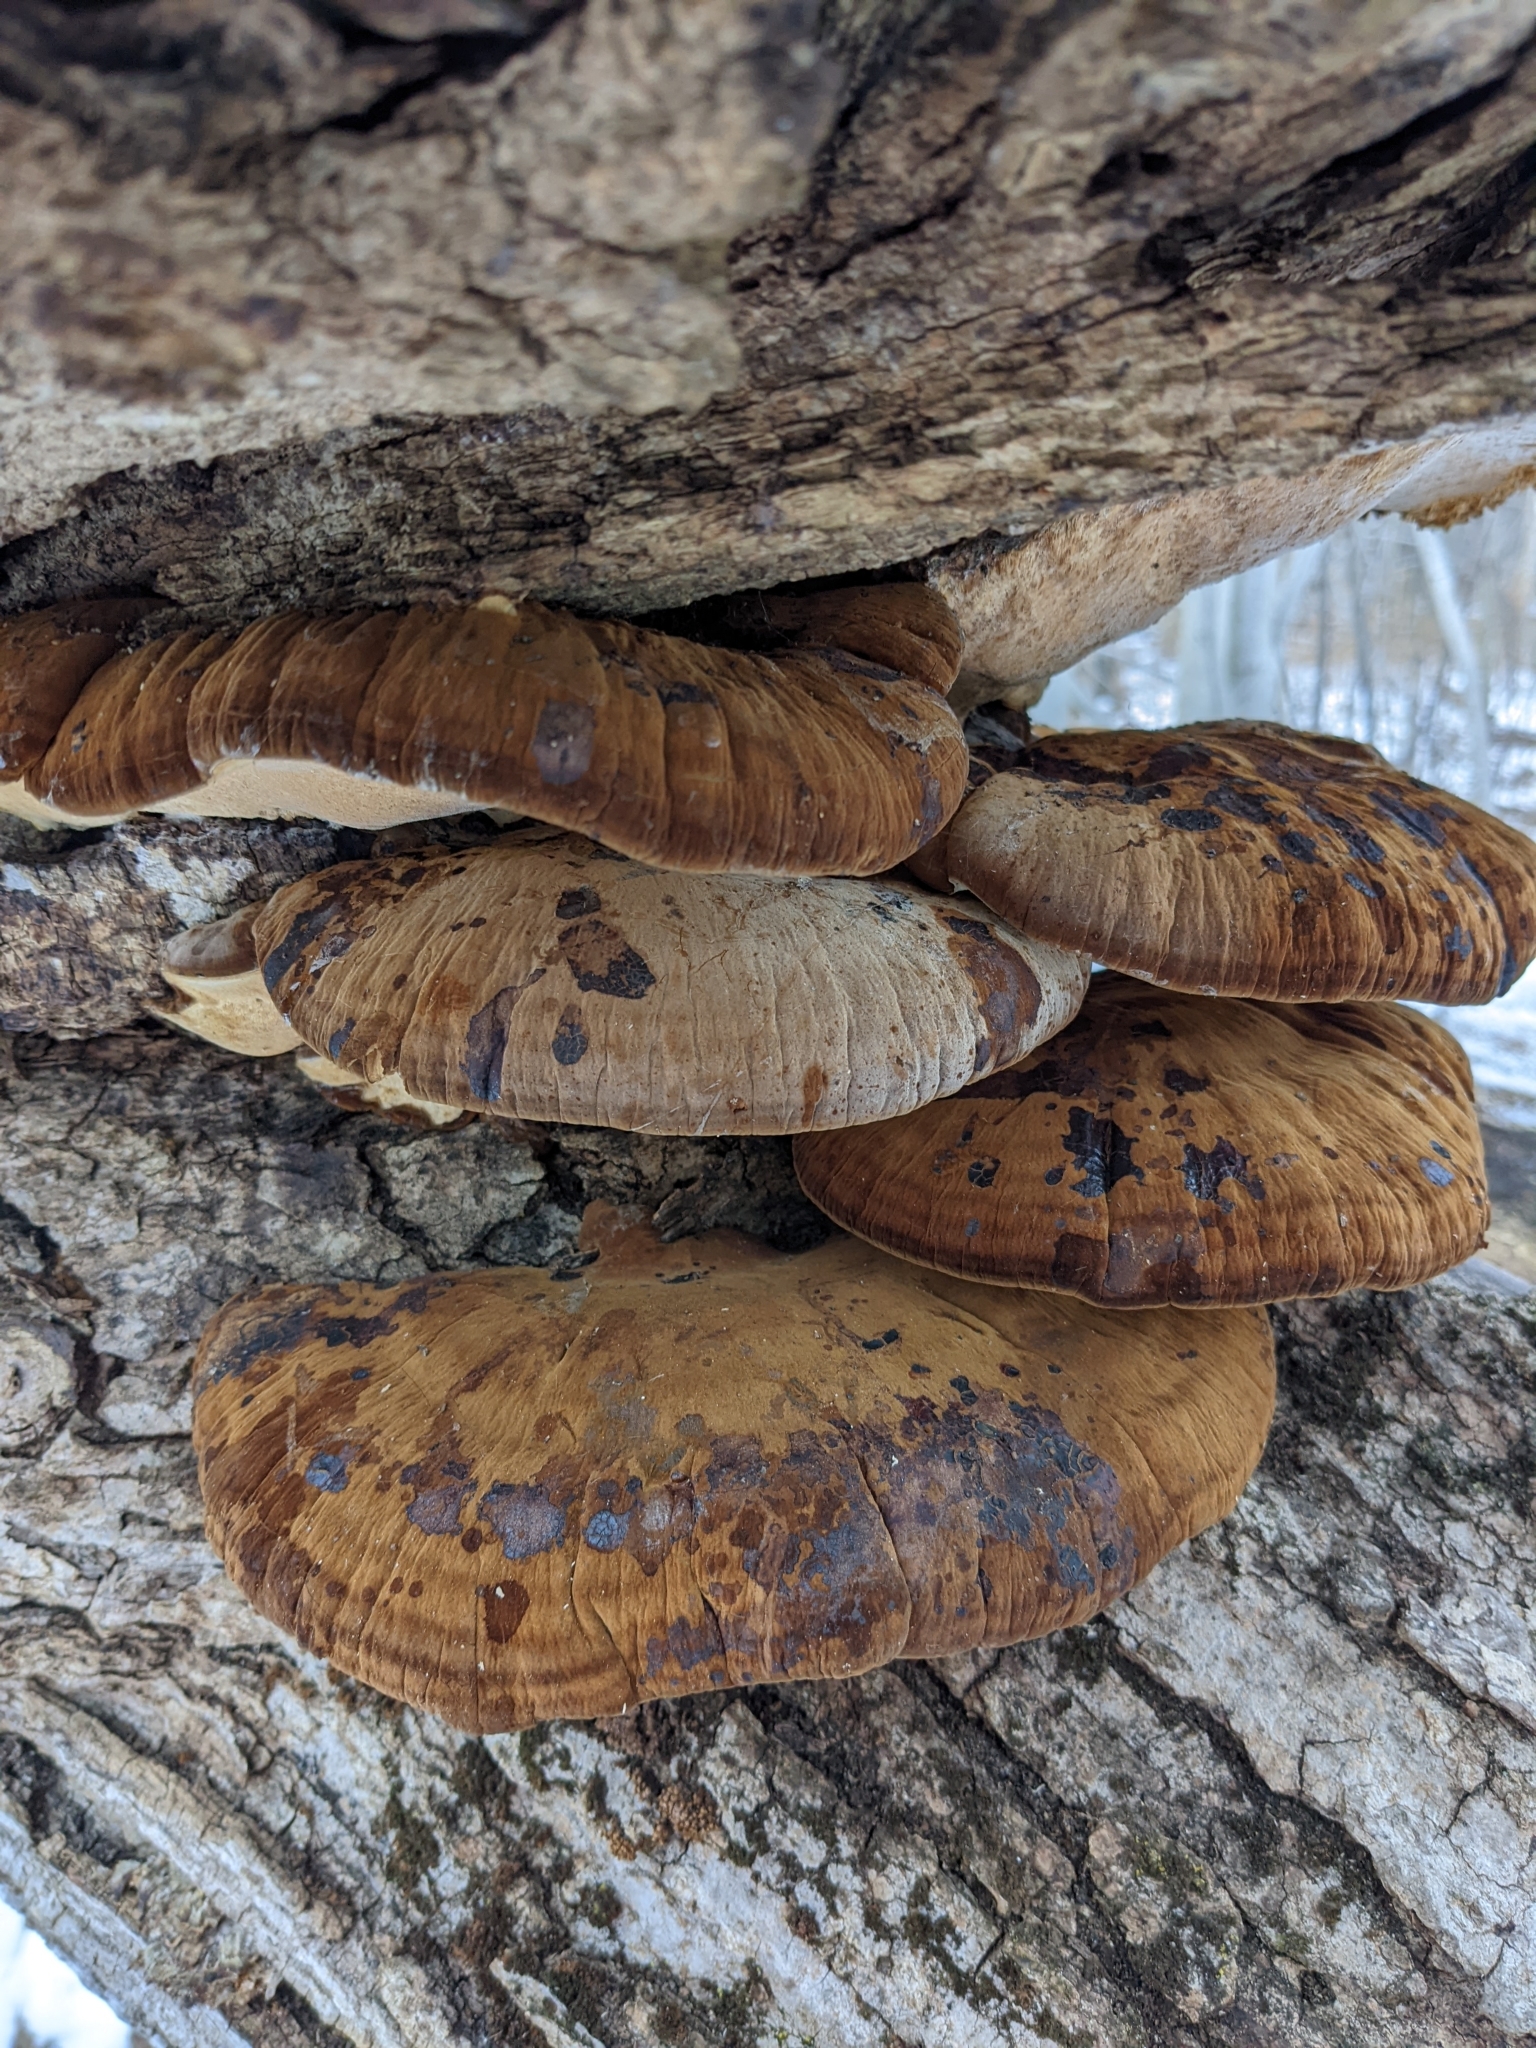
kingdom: Fungi
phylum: Basidiomycota
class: Agaricomycetes
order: Polyporales
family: Ischnodermataceae
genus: Ischnoderma
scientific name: Ischnoderma resinosum
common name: Resinous polypore
